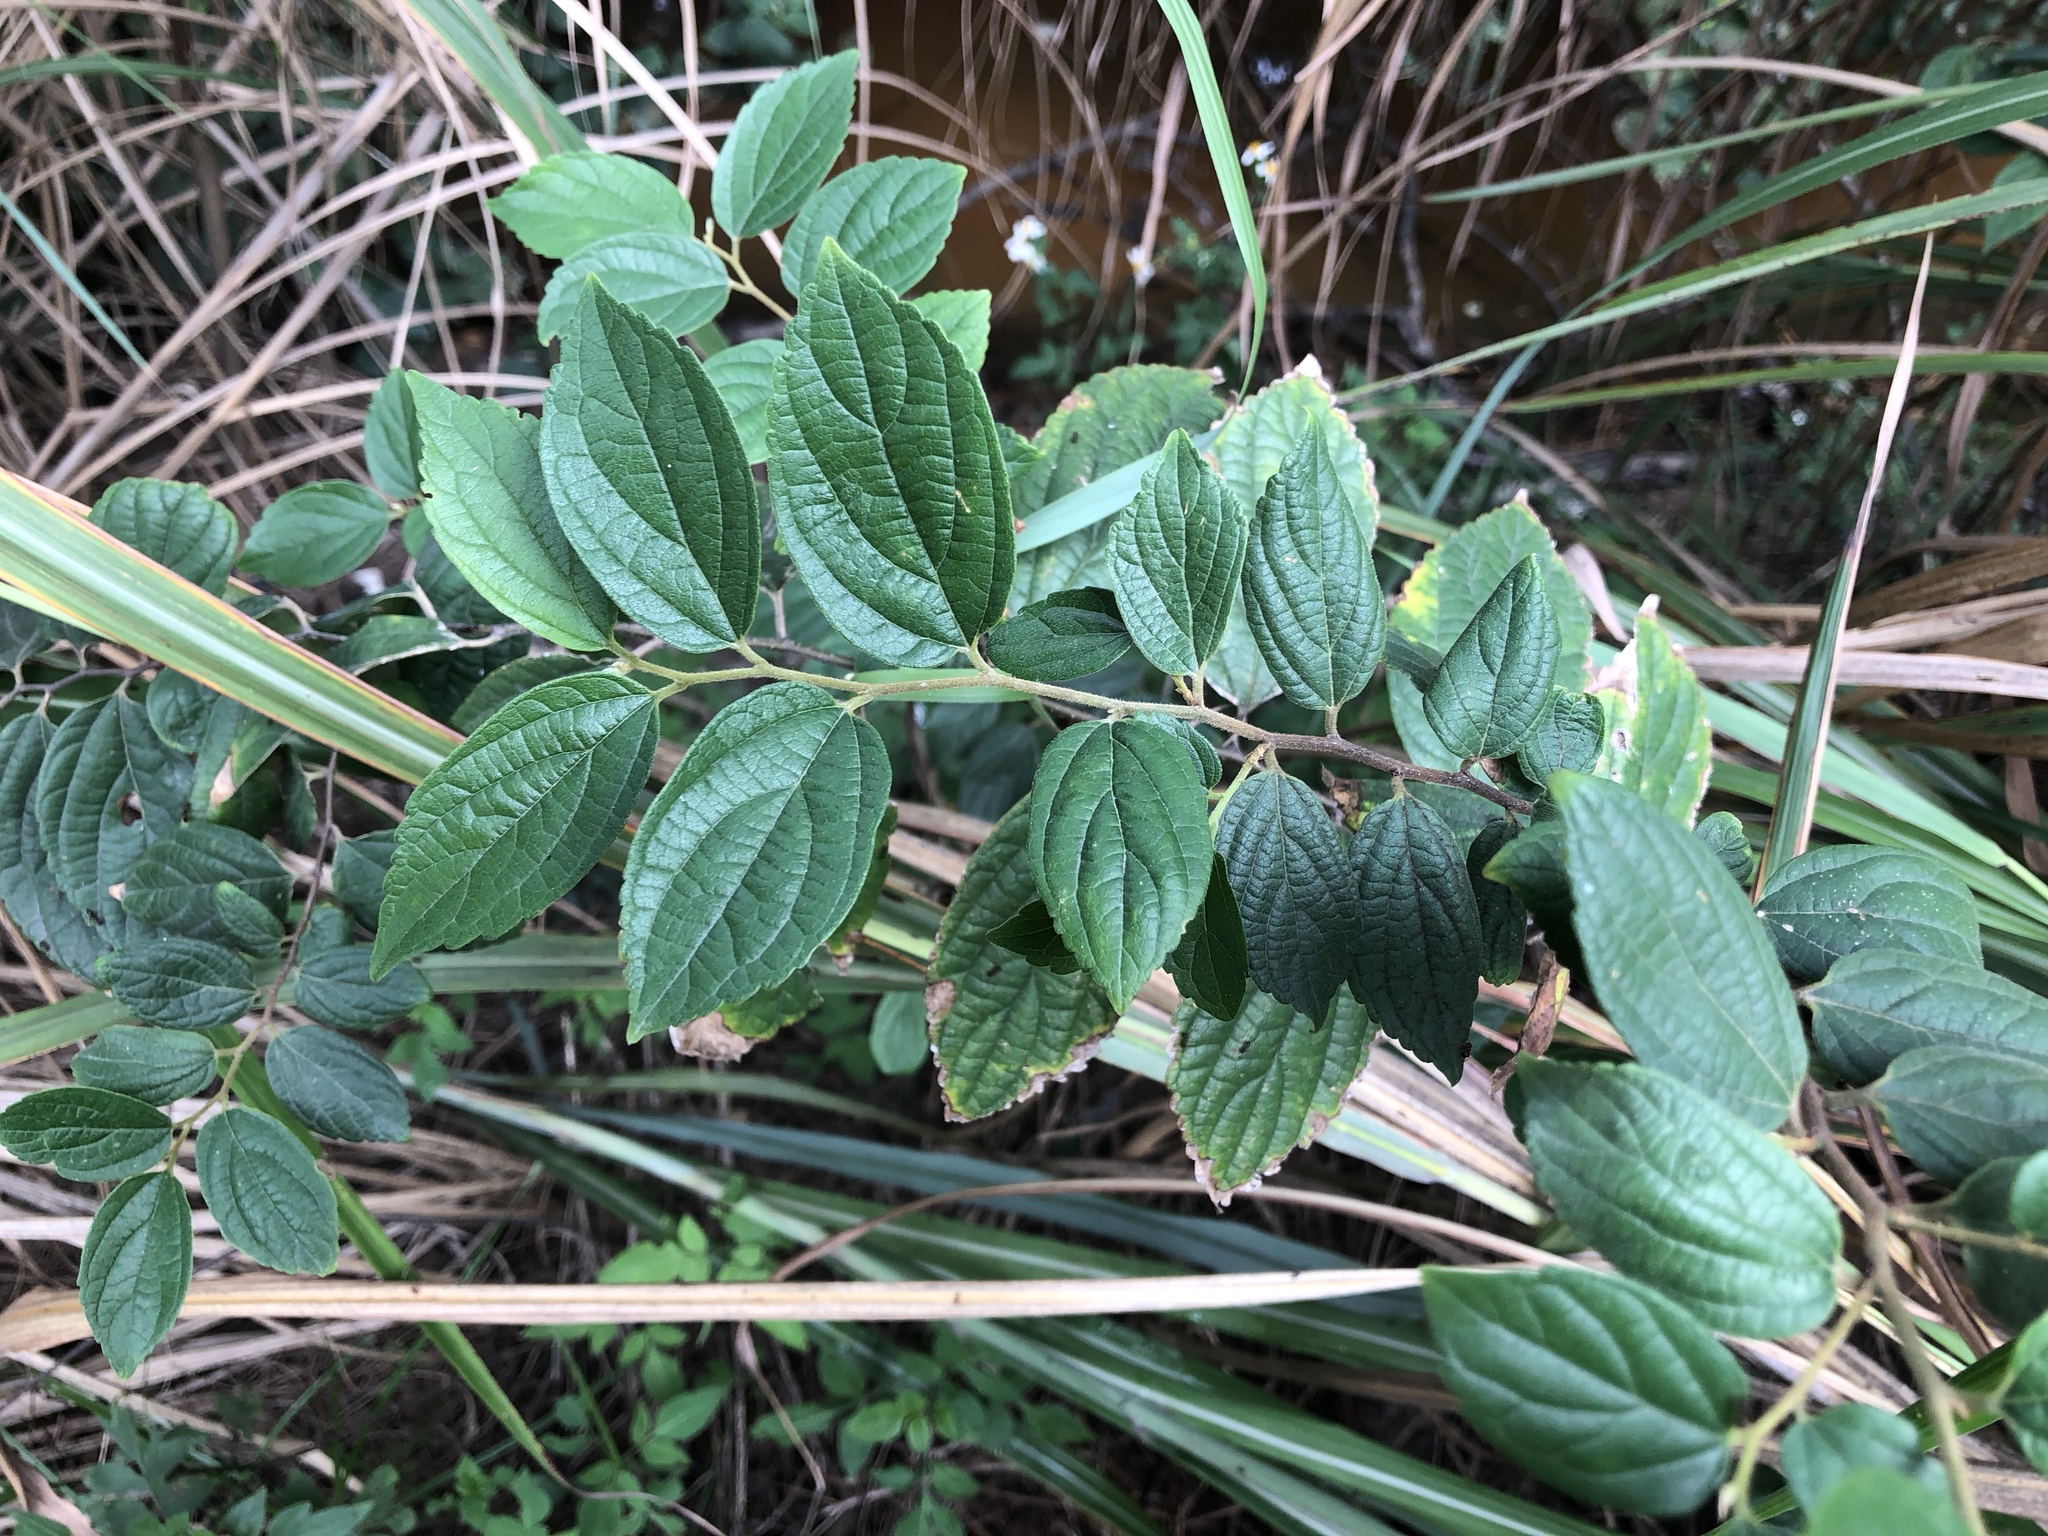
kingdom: Plantae
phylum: Tracheophyta
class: Magnoliopsida
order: Rosales
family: Cannabaceae
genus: Celtis
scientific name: Celtis sinensis
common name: Chinese hackberry
